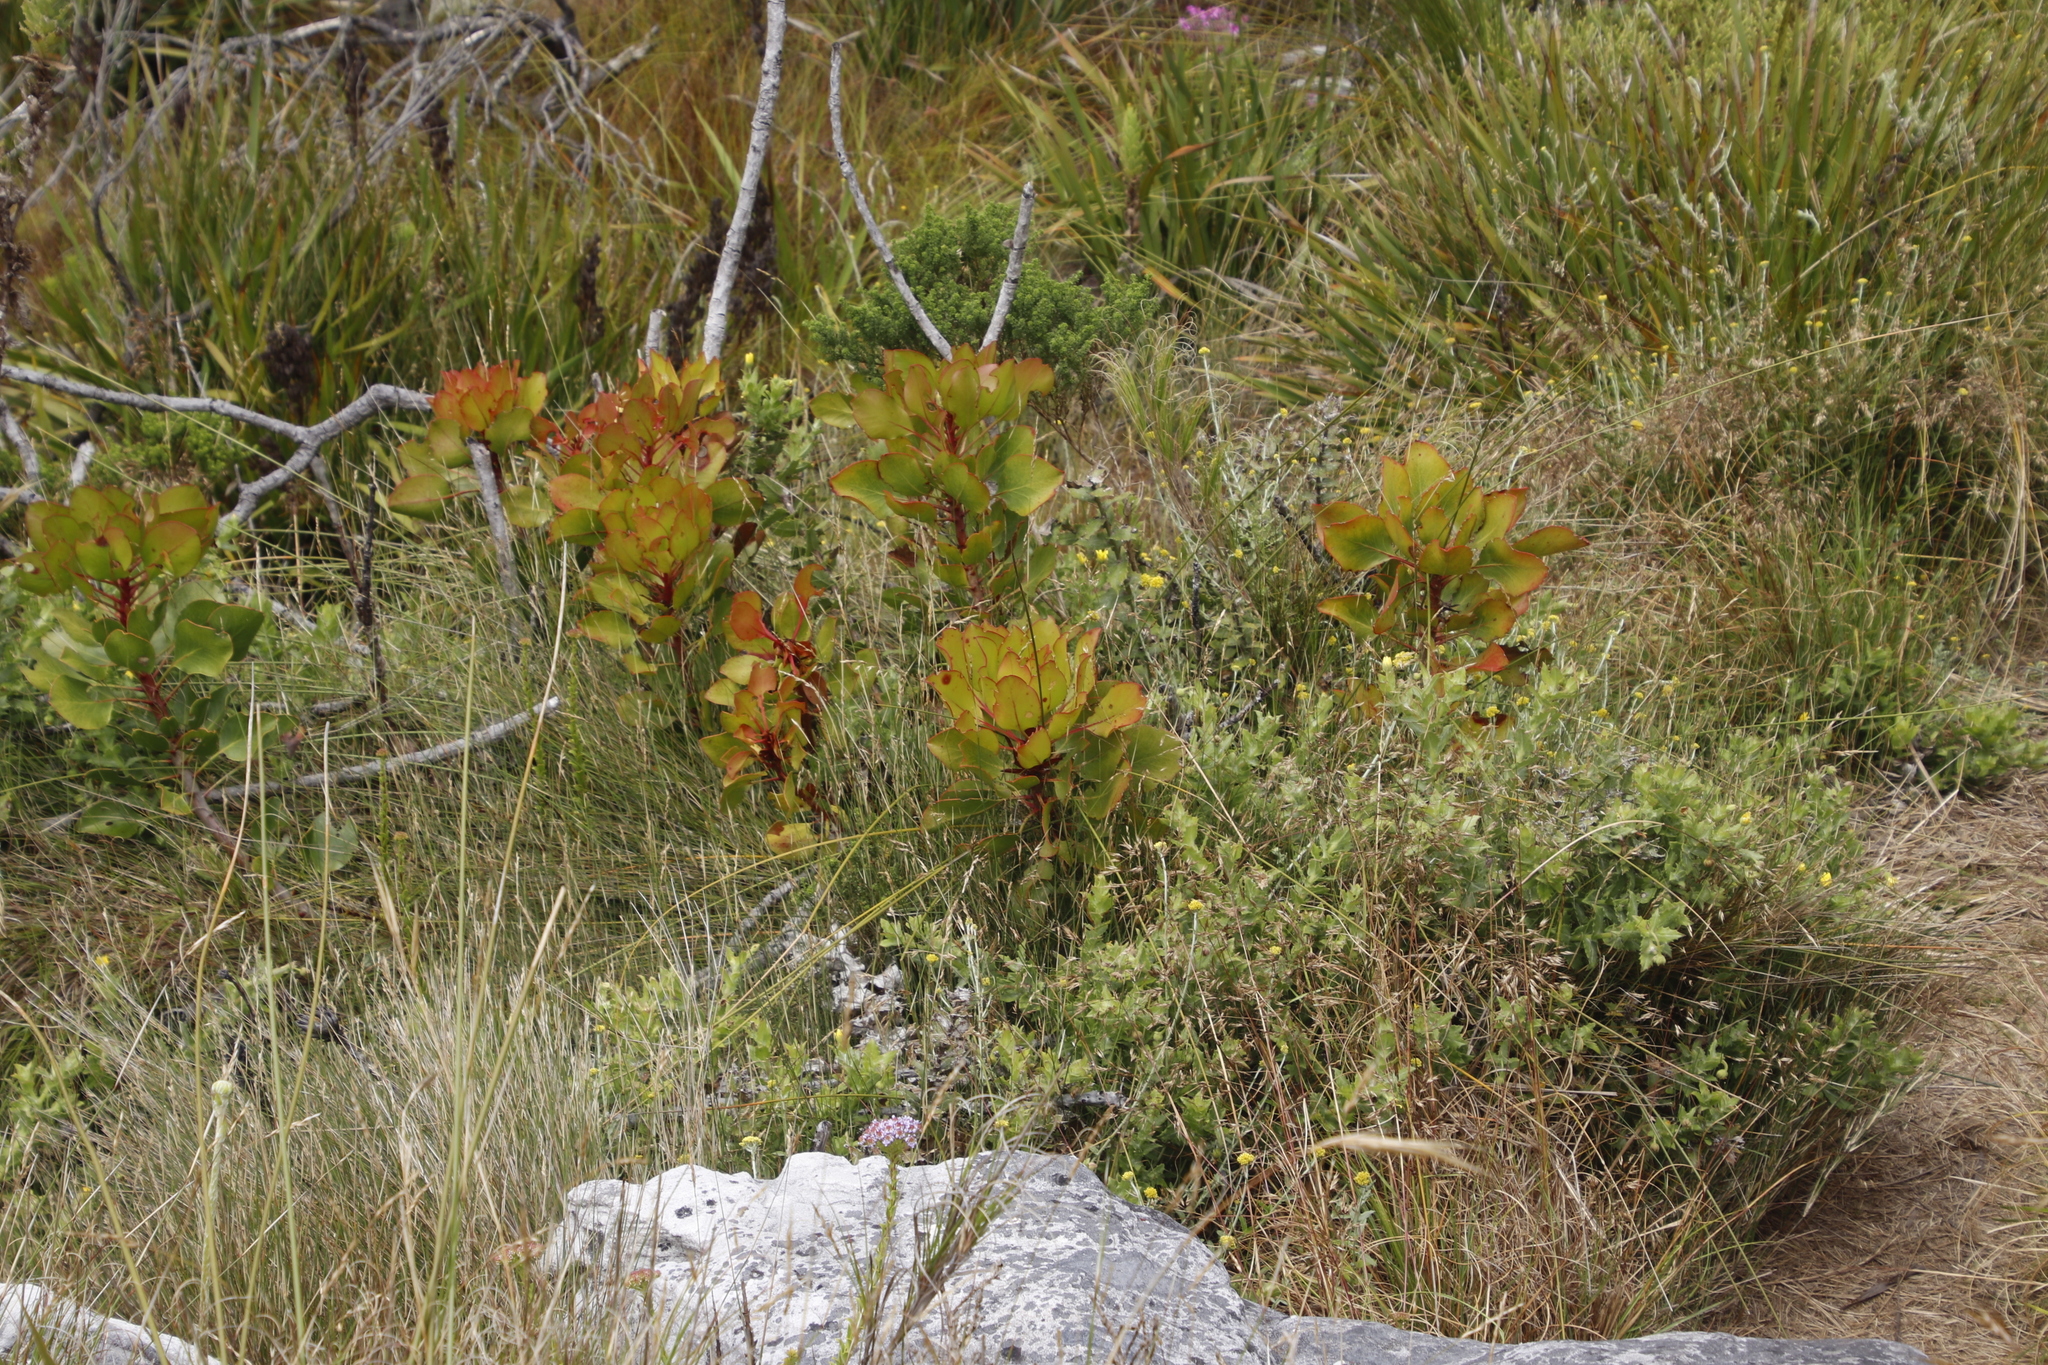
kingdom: Plantae
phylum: Tracheophyta
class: Magnoliopsida
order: Proteales
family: Proteaceae
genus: Protea
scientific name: Protea cynaroides
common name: King protea
